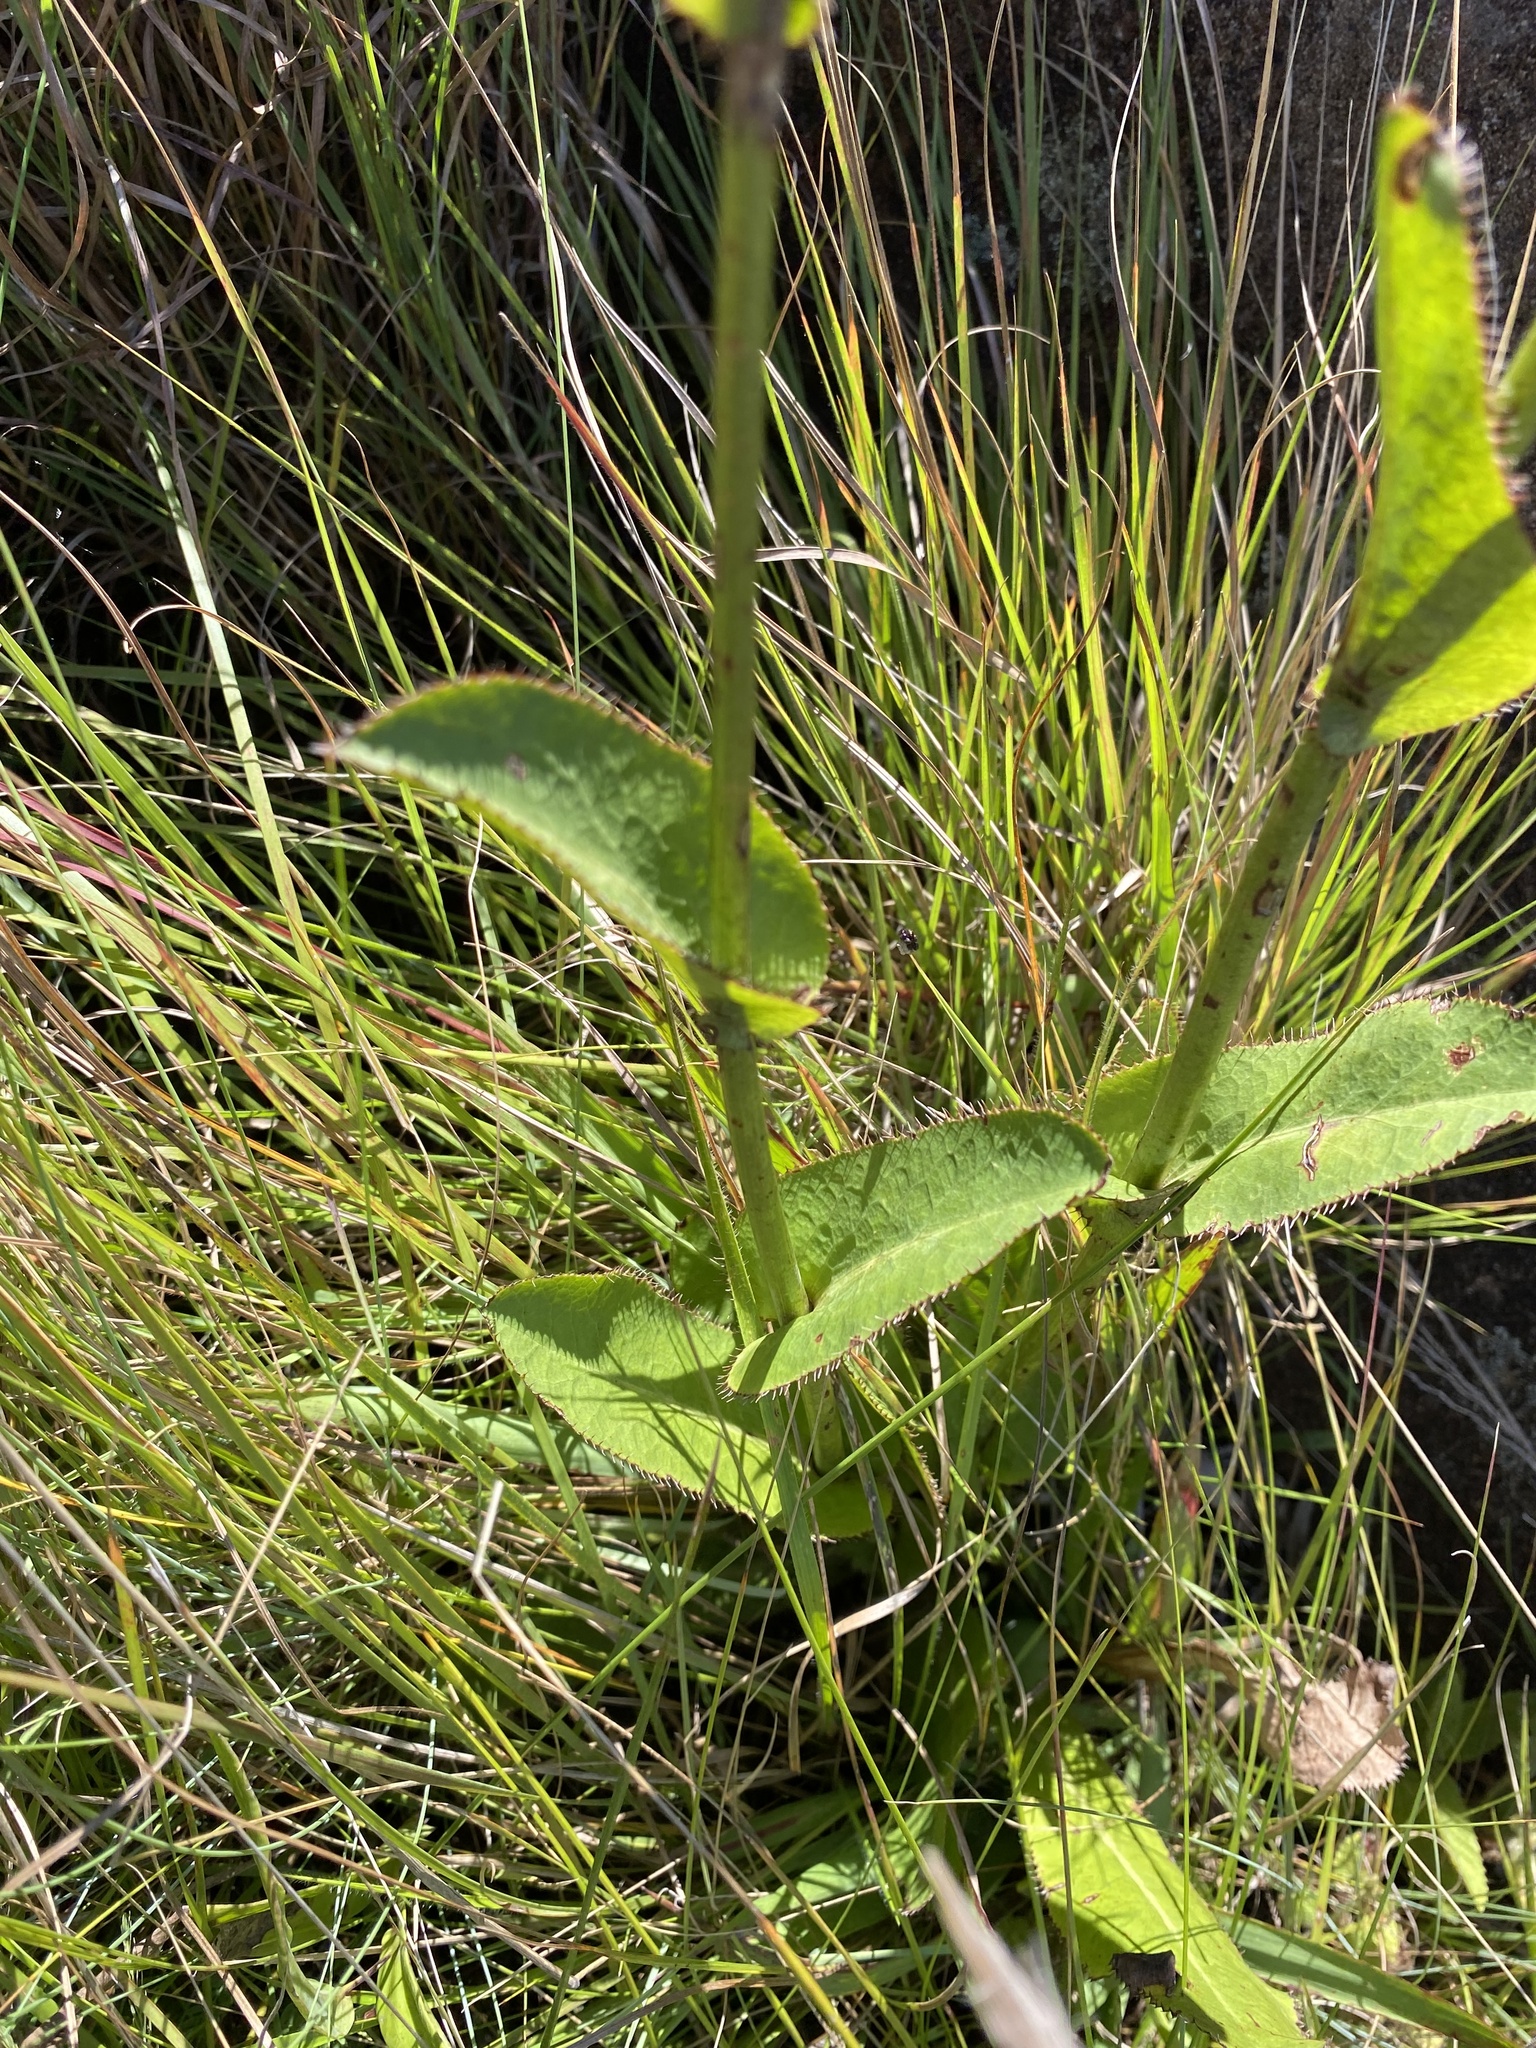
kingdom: Plantae
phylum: Tracheophyta
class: Magnoliopsida
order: Apiales
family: Apiaceae
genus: Alepidea
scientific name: Alepidea woodii
